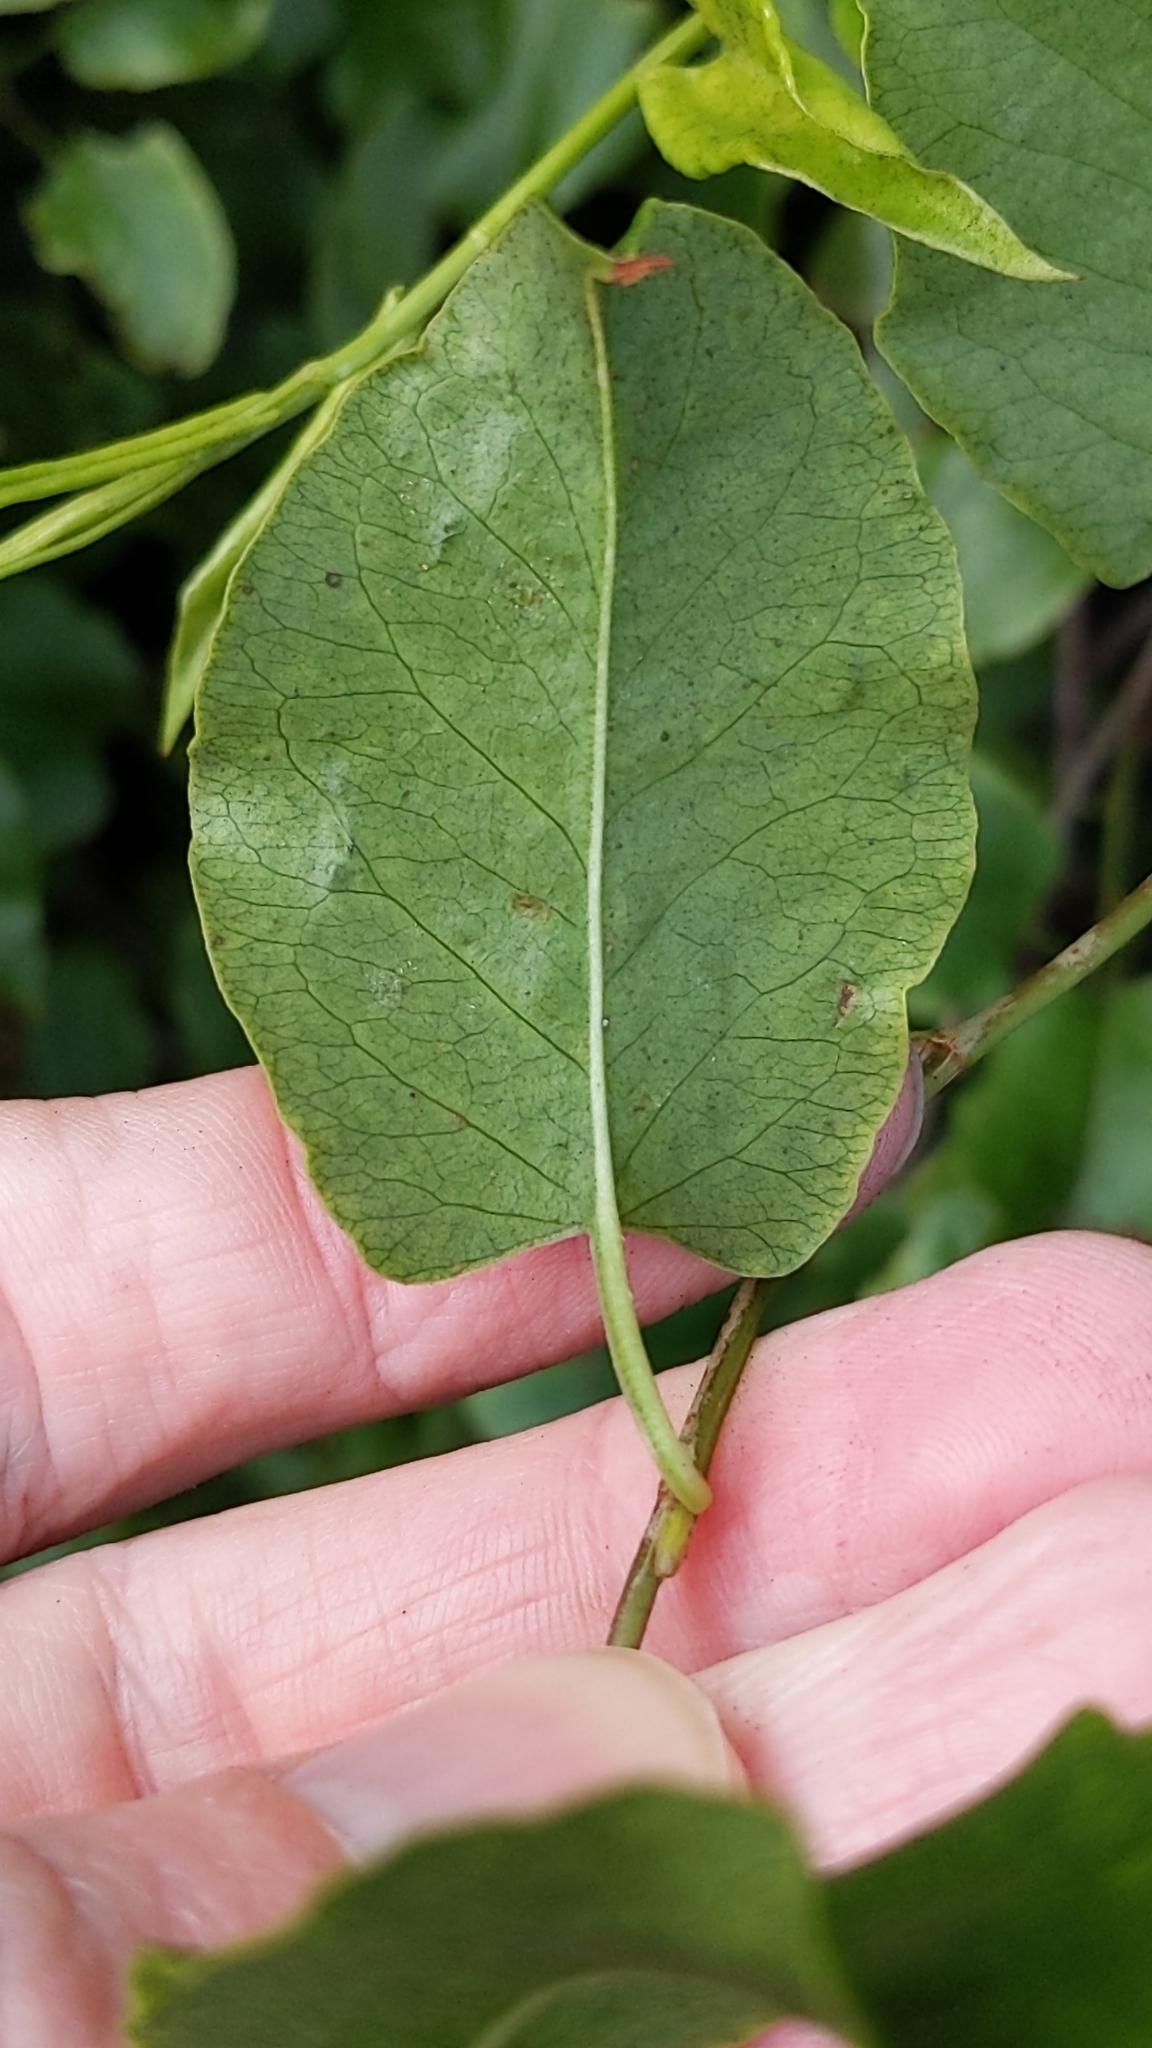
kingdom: Plantae
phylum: Tracheophyta
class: Magnoliopsida
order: Caryophyllales
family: Polygonaceae
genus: Muehlenbeckia
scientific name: Muehlenbeckia australis
